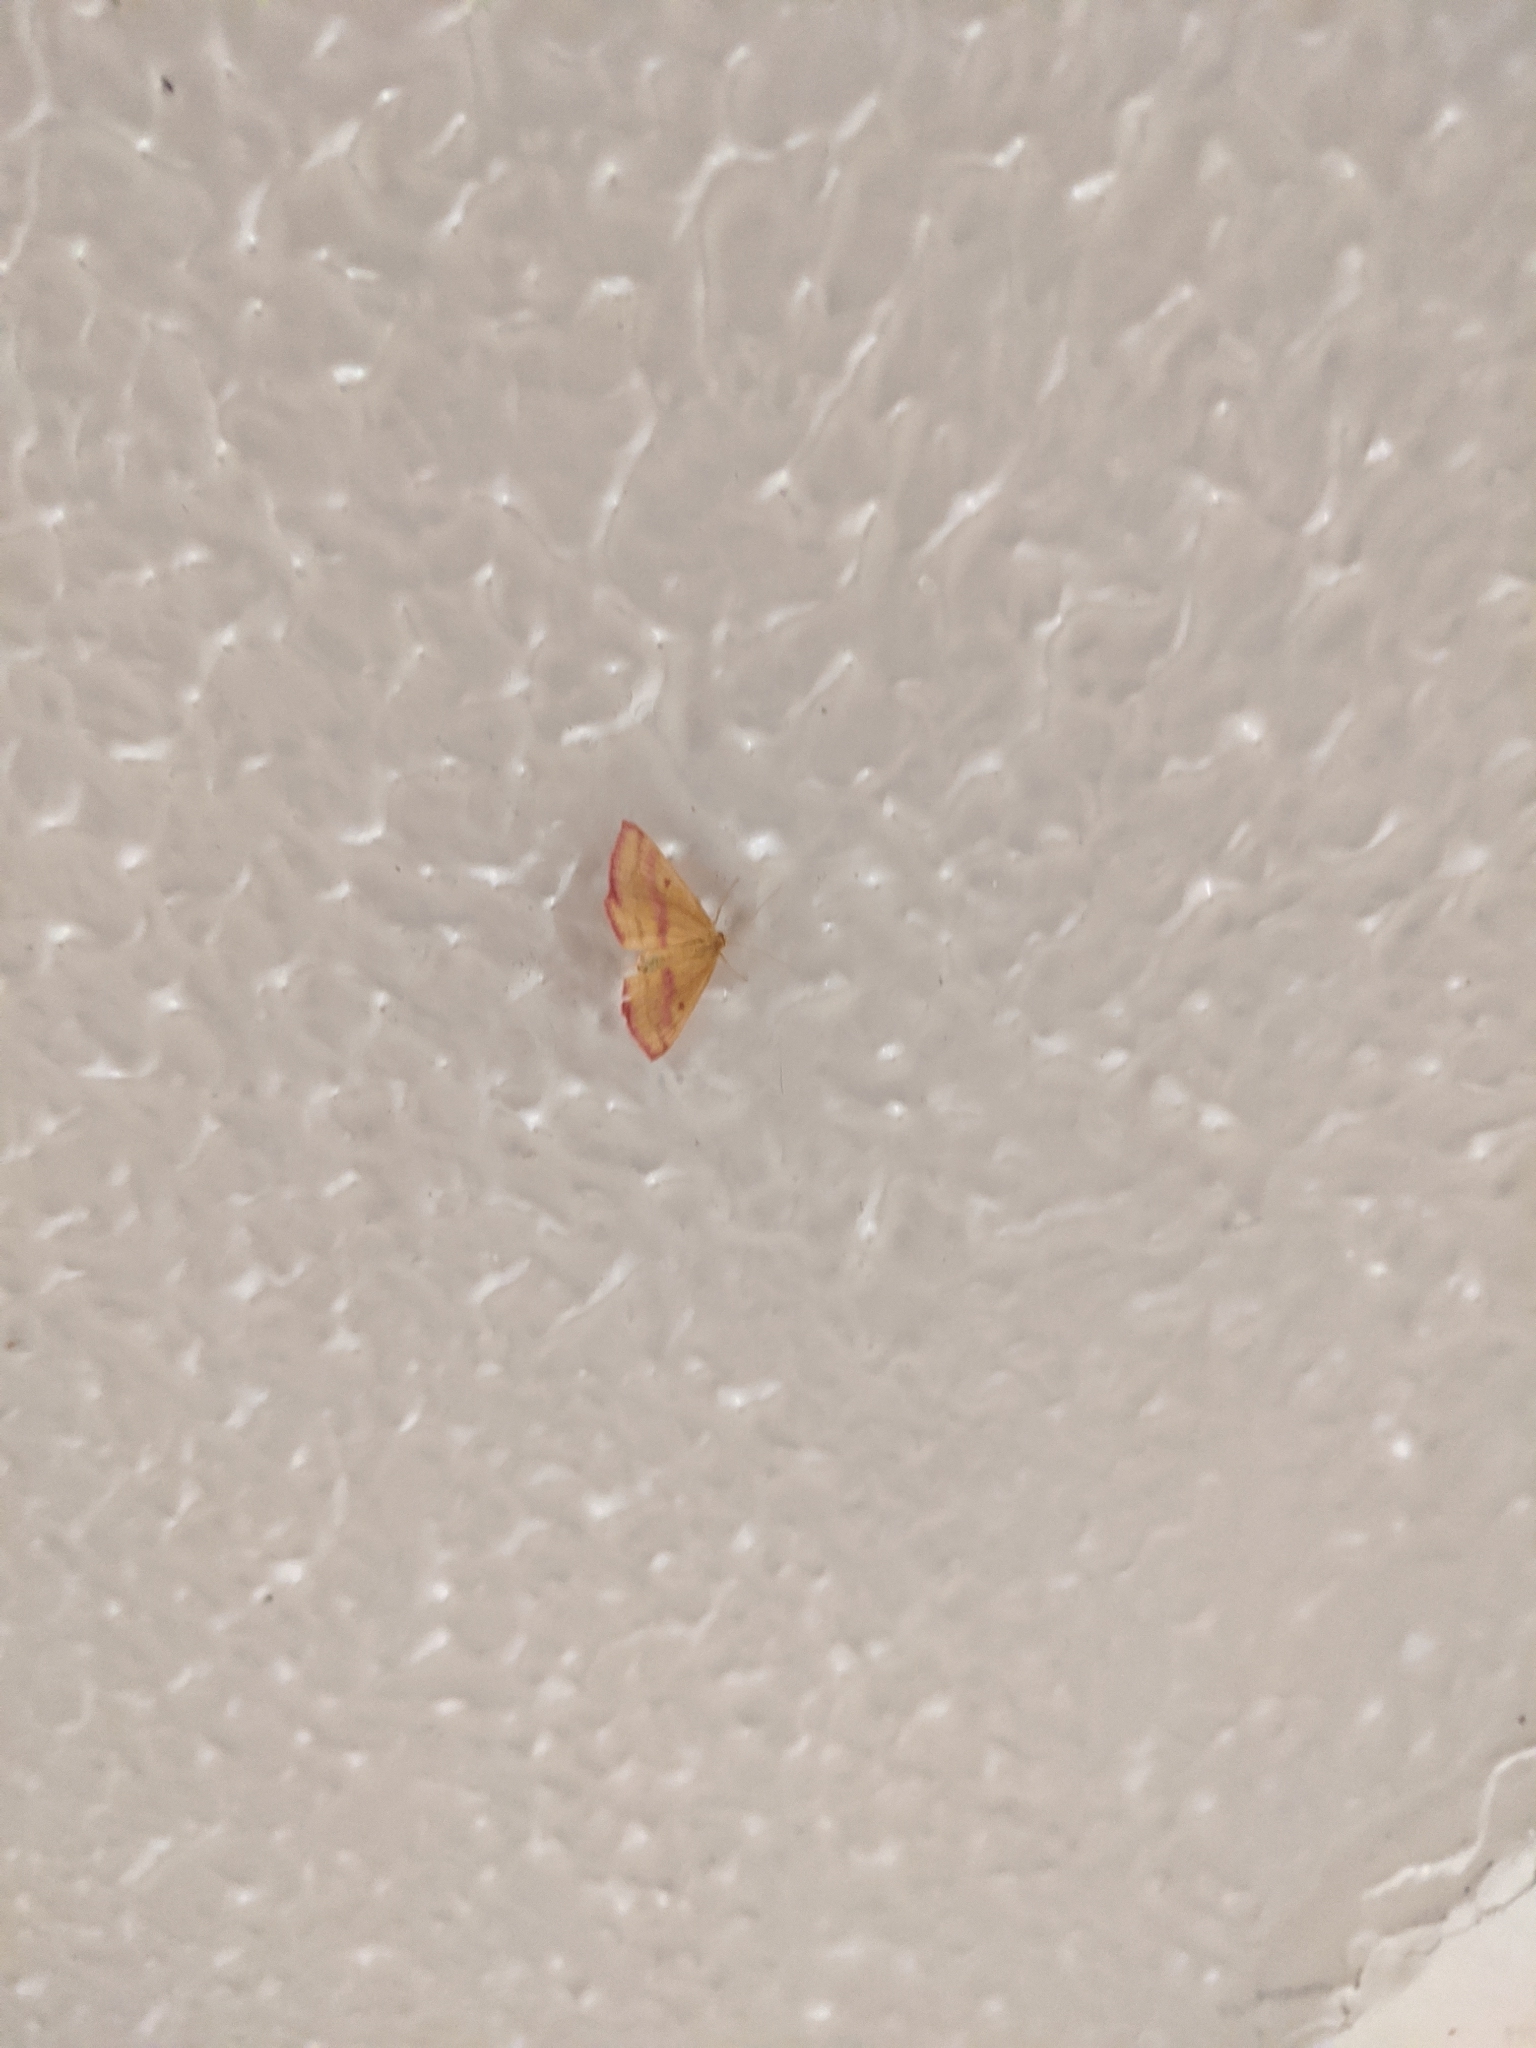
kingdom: Animalia
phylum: Arthropoda
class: Insecta
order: Lepidoptera
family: Geometridae
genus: Haematopis
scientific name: Haematopis grataria
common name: Chickweed geometer
